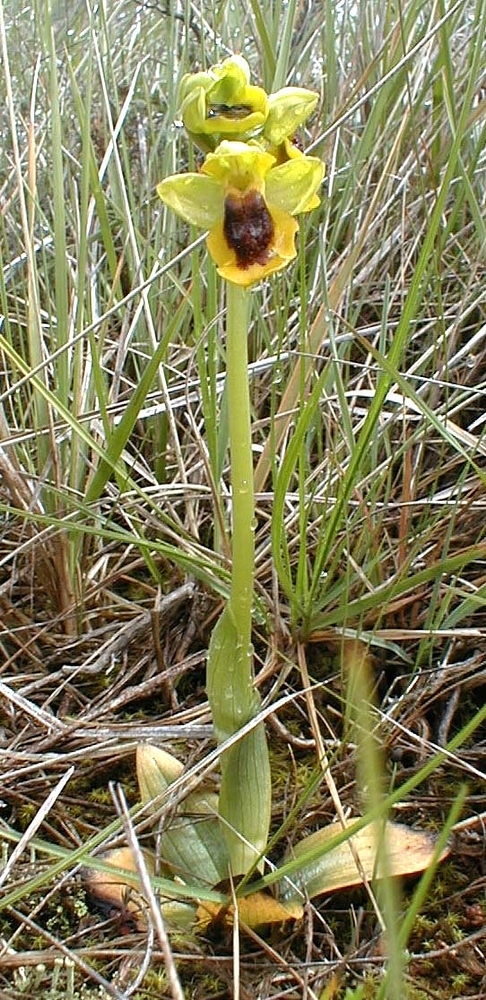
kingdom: Plantae
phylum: Tracheophyta
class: Liliopsida
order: Asparagales
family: Orchidaceae
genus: Ophrys
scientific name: Ophrys lutea
